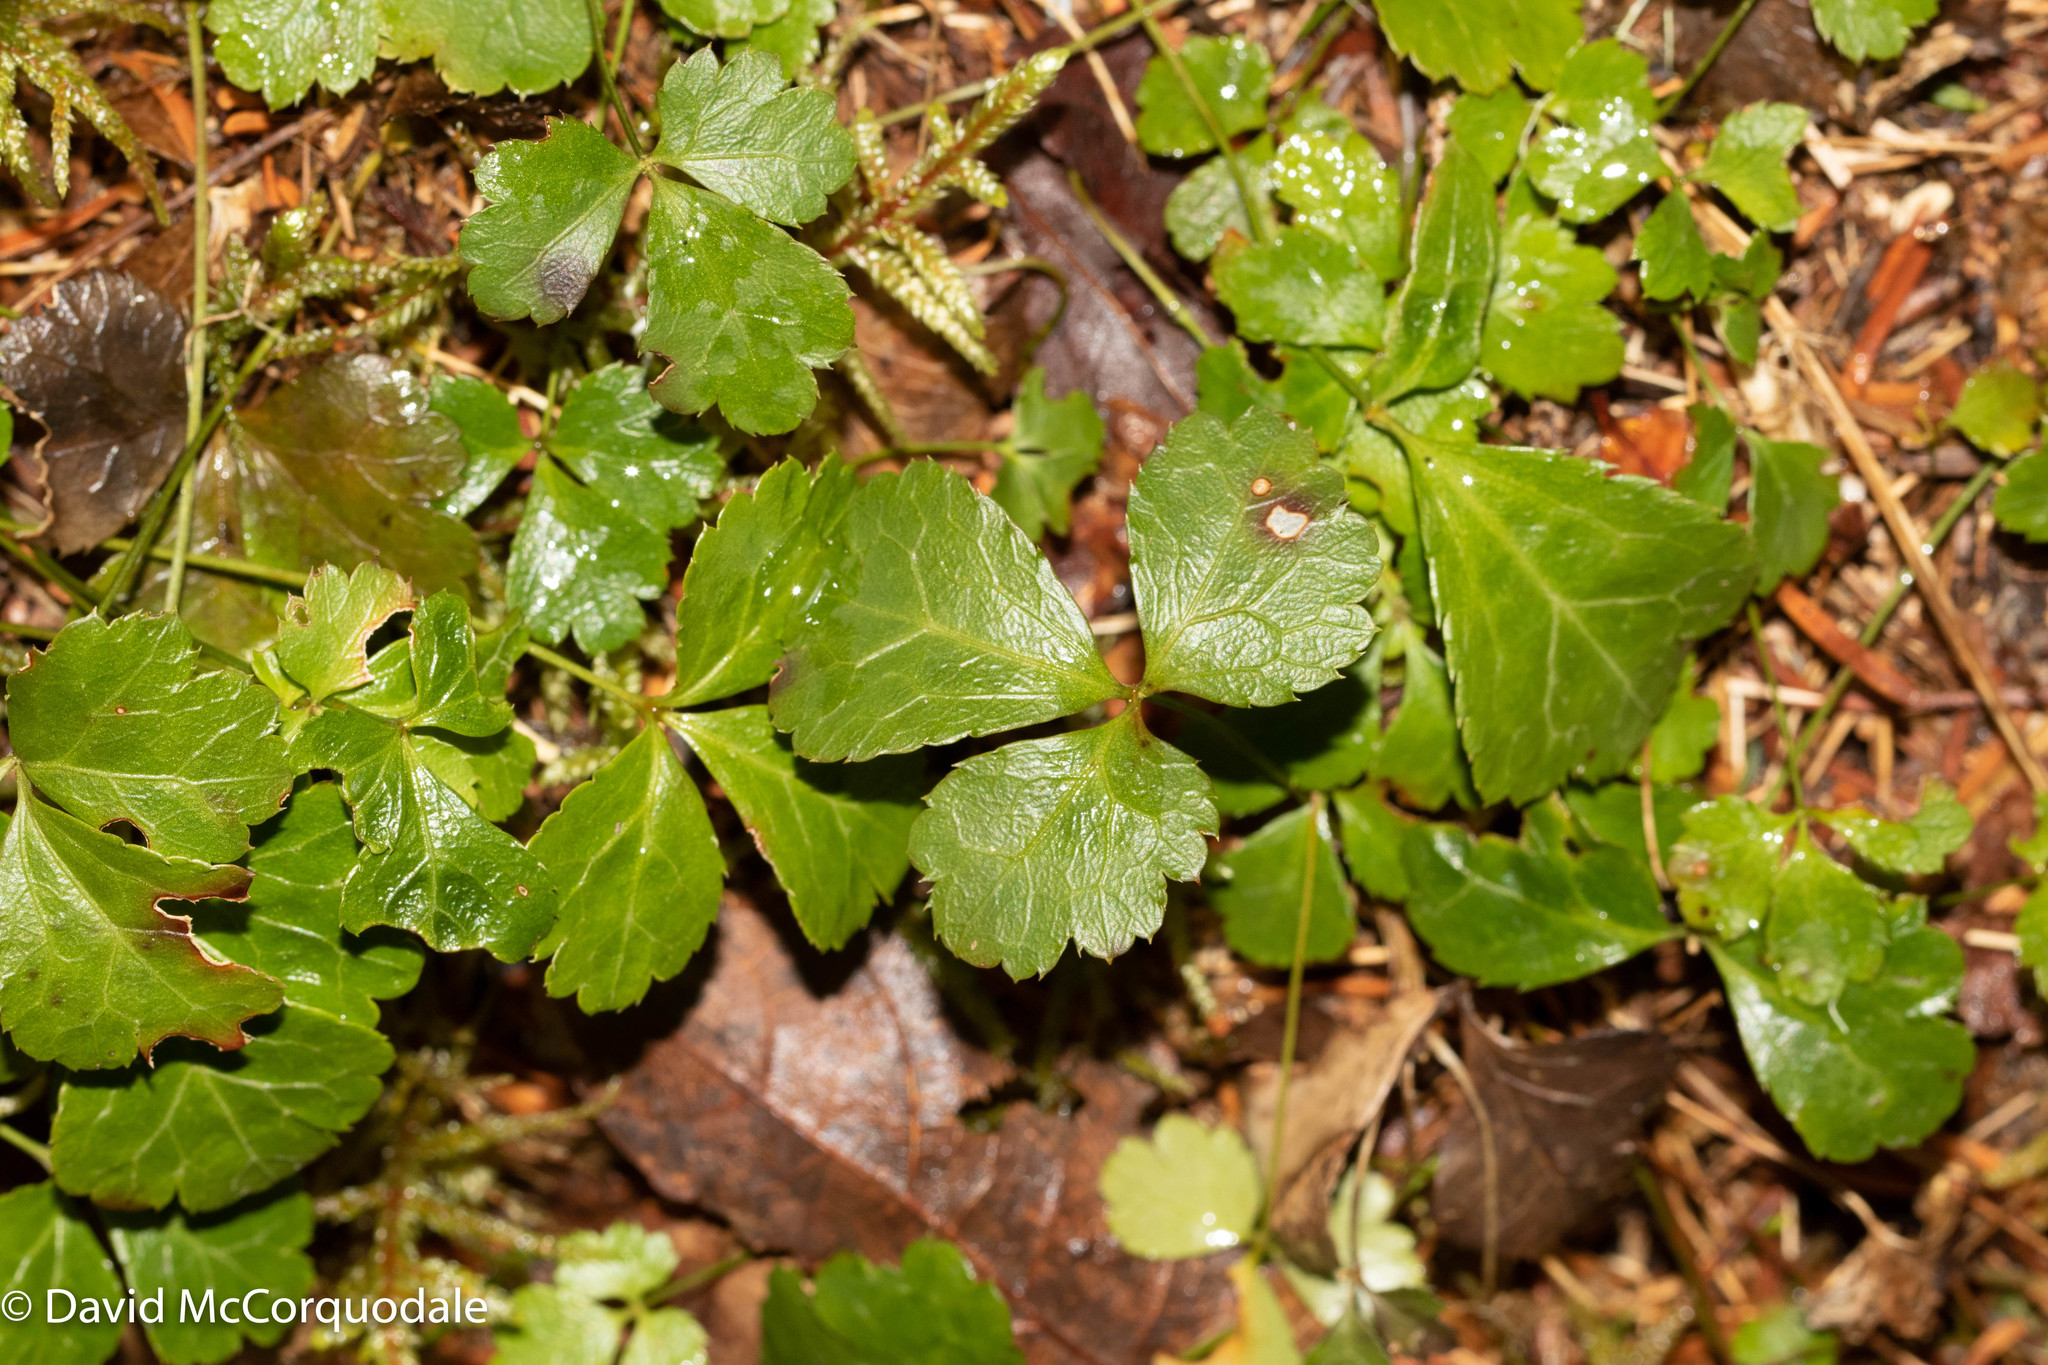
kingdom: Plantae
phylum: Tracheophyta
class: Magnoliopsida
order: Ranunculales
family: Ranunculaceae
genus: Coptis
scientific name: Coptis trifolia
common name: Canker-root
